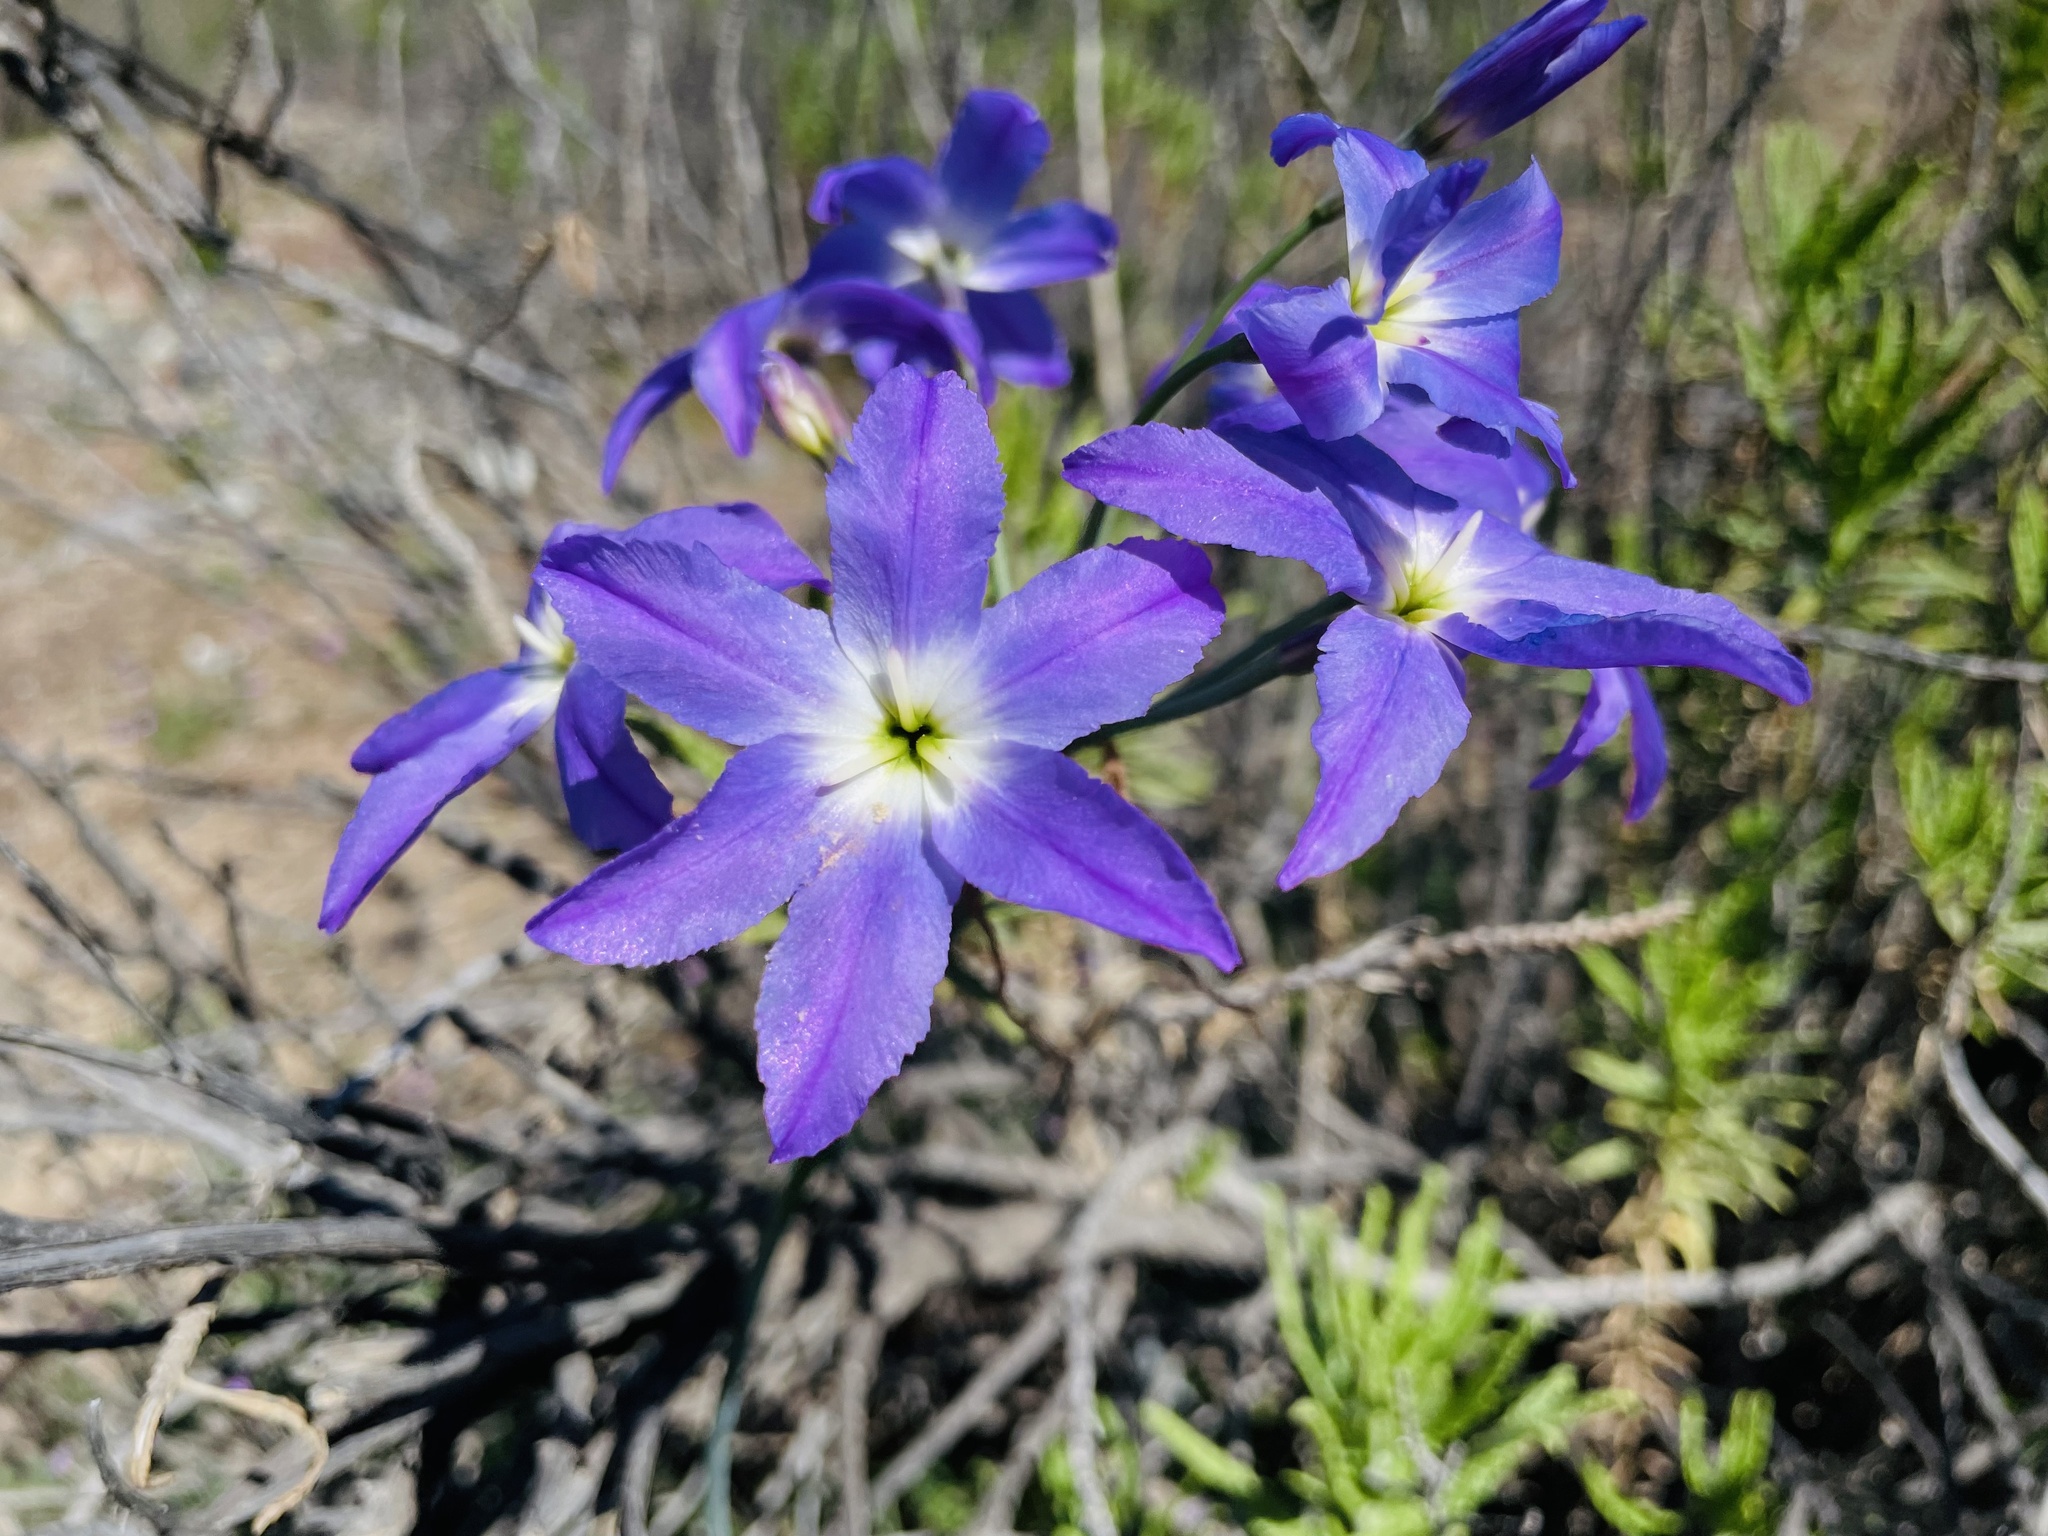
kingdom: Plantae
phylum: Tracheophyta
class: Liliopsida
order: Asparagales
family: Amaryllidaceae
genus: Leucocoryne
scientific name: Leucocoryne coquimbensis
